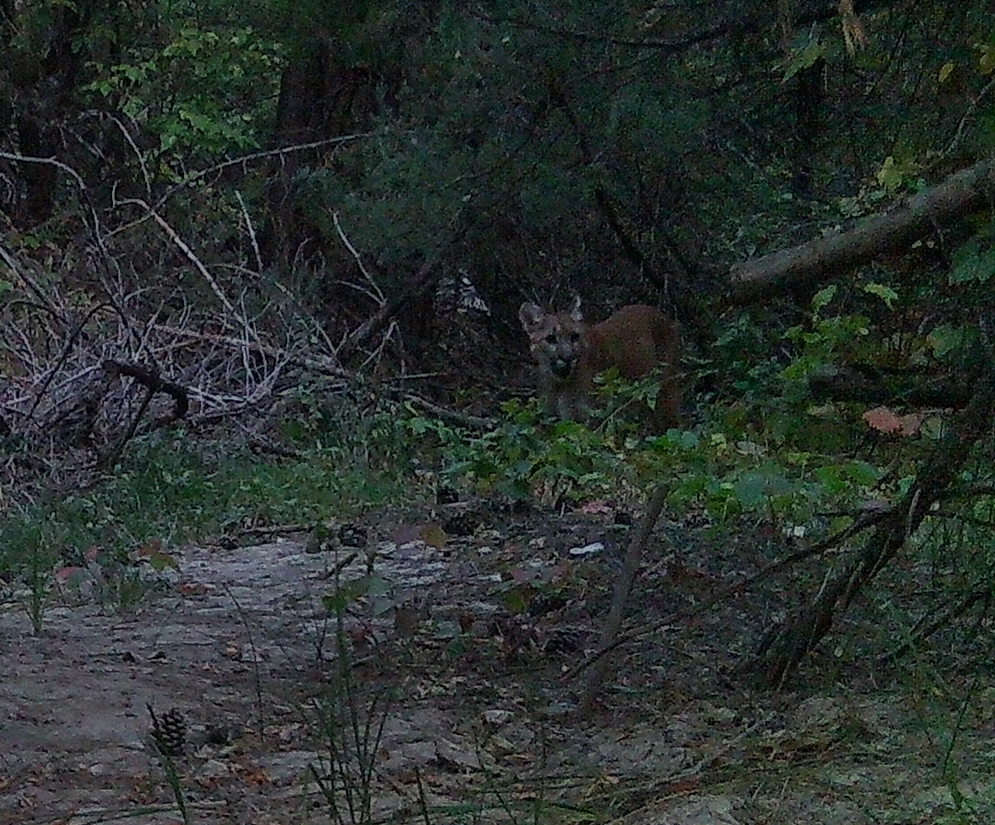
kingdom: Animalia
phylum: Chordata
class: Mammalia
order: Carnivora
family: Felidae
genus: Puma
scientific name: Puma concolor
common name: Puma
